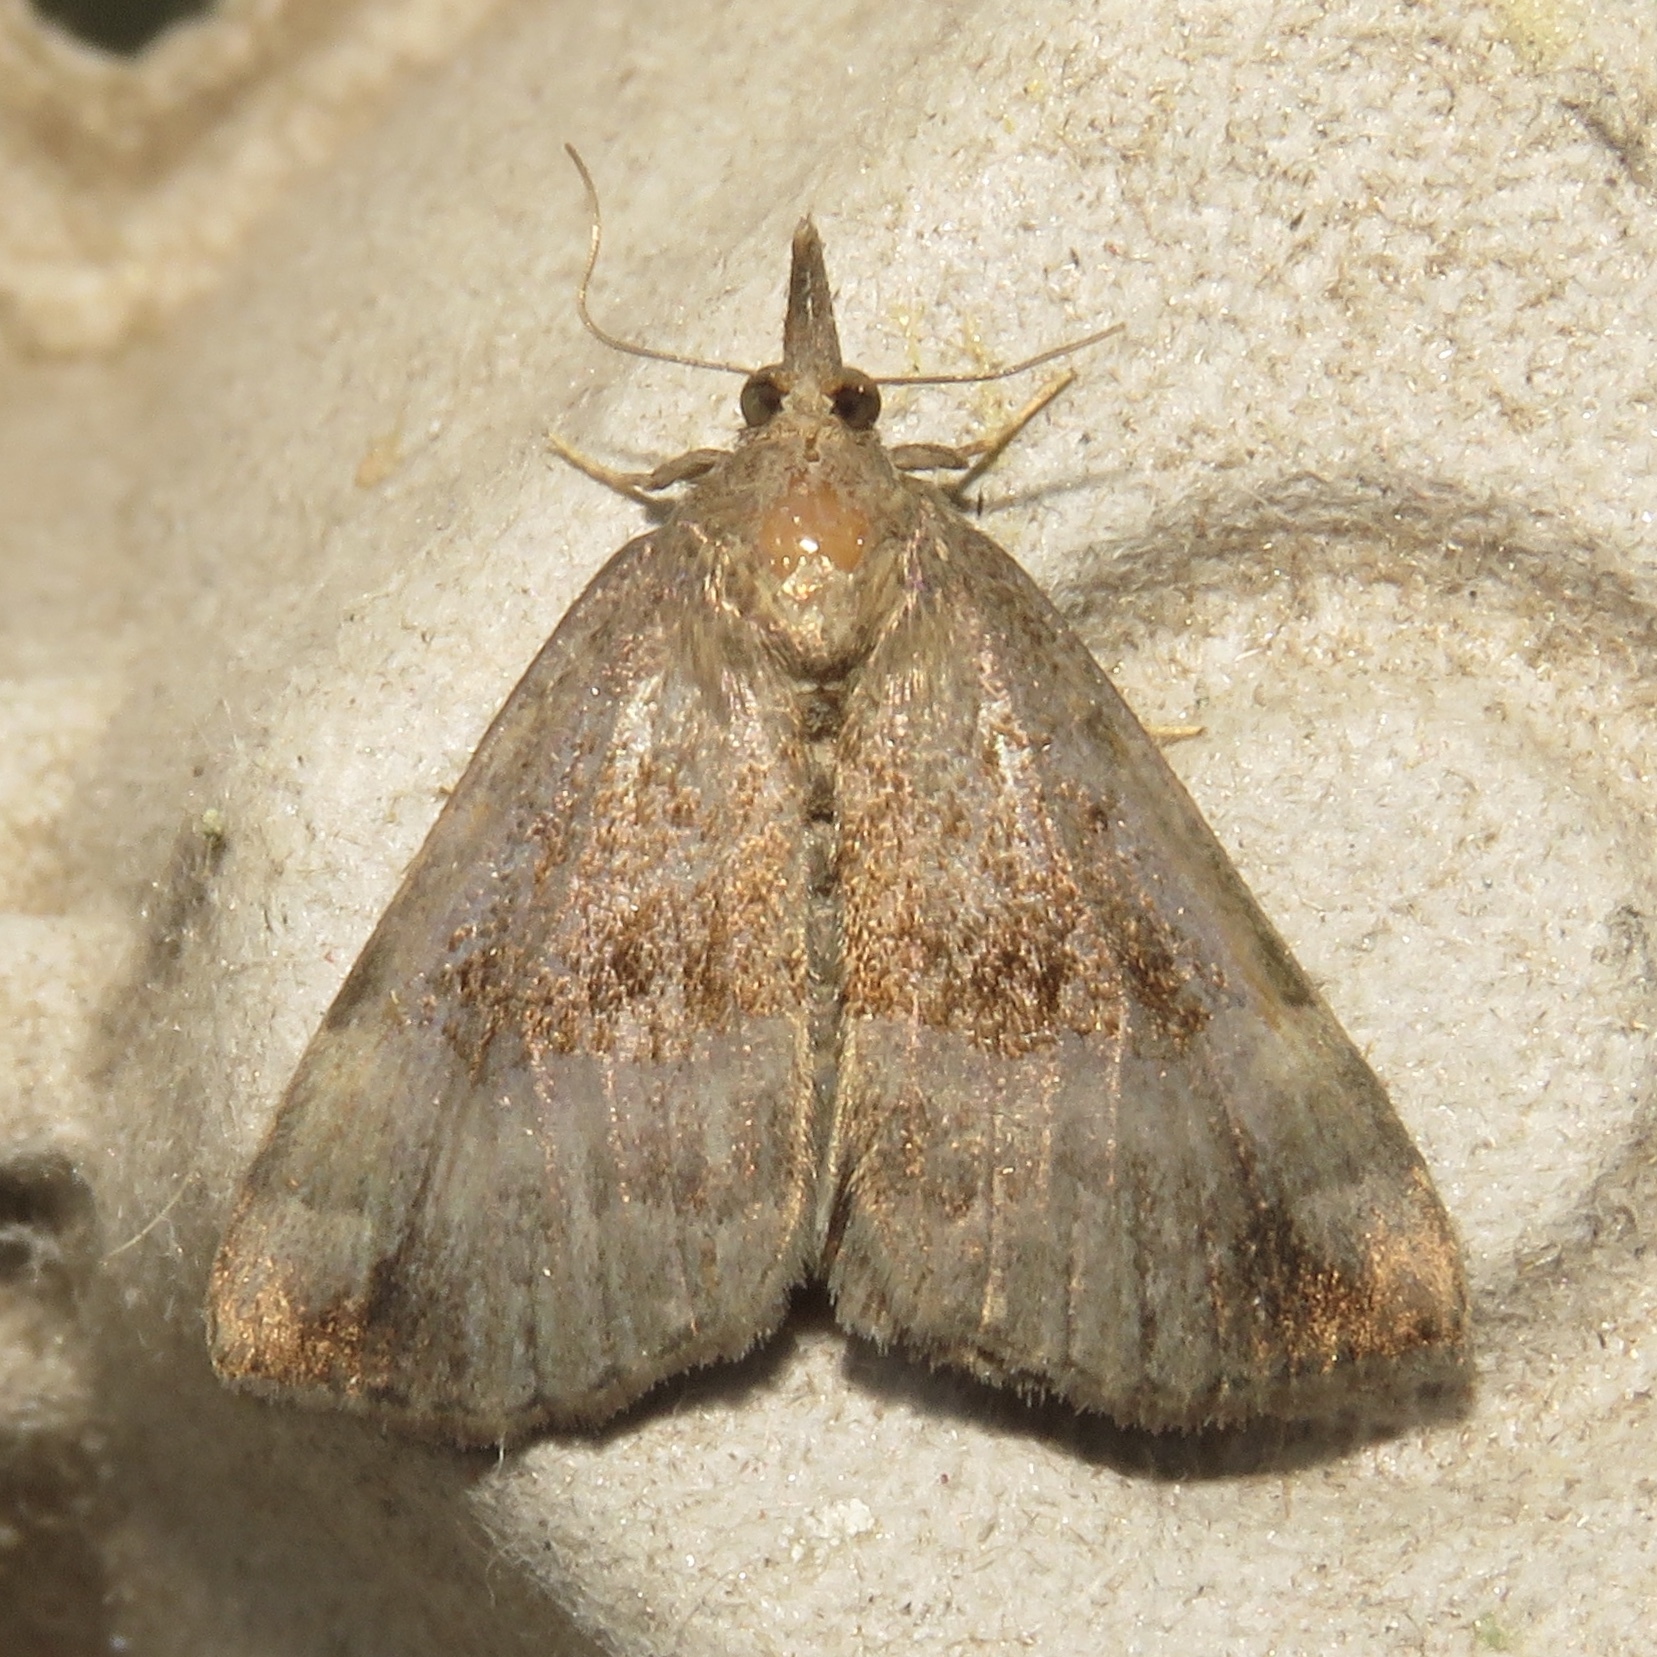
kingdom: Animalia
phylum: Arthropoda
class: Insecta
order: Lepidoptera
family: Erebidae
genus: Hypena
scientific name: Hypena madefactalis
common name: Gray-edged snout
